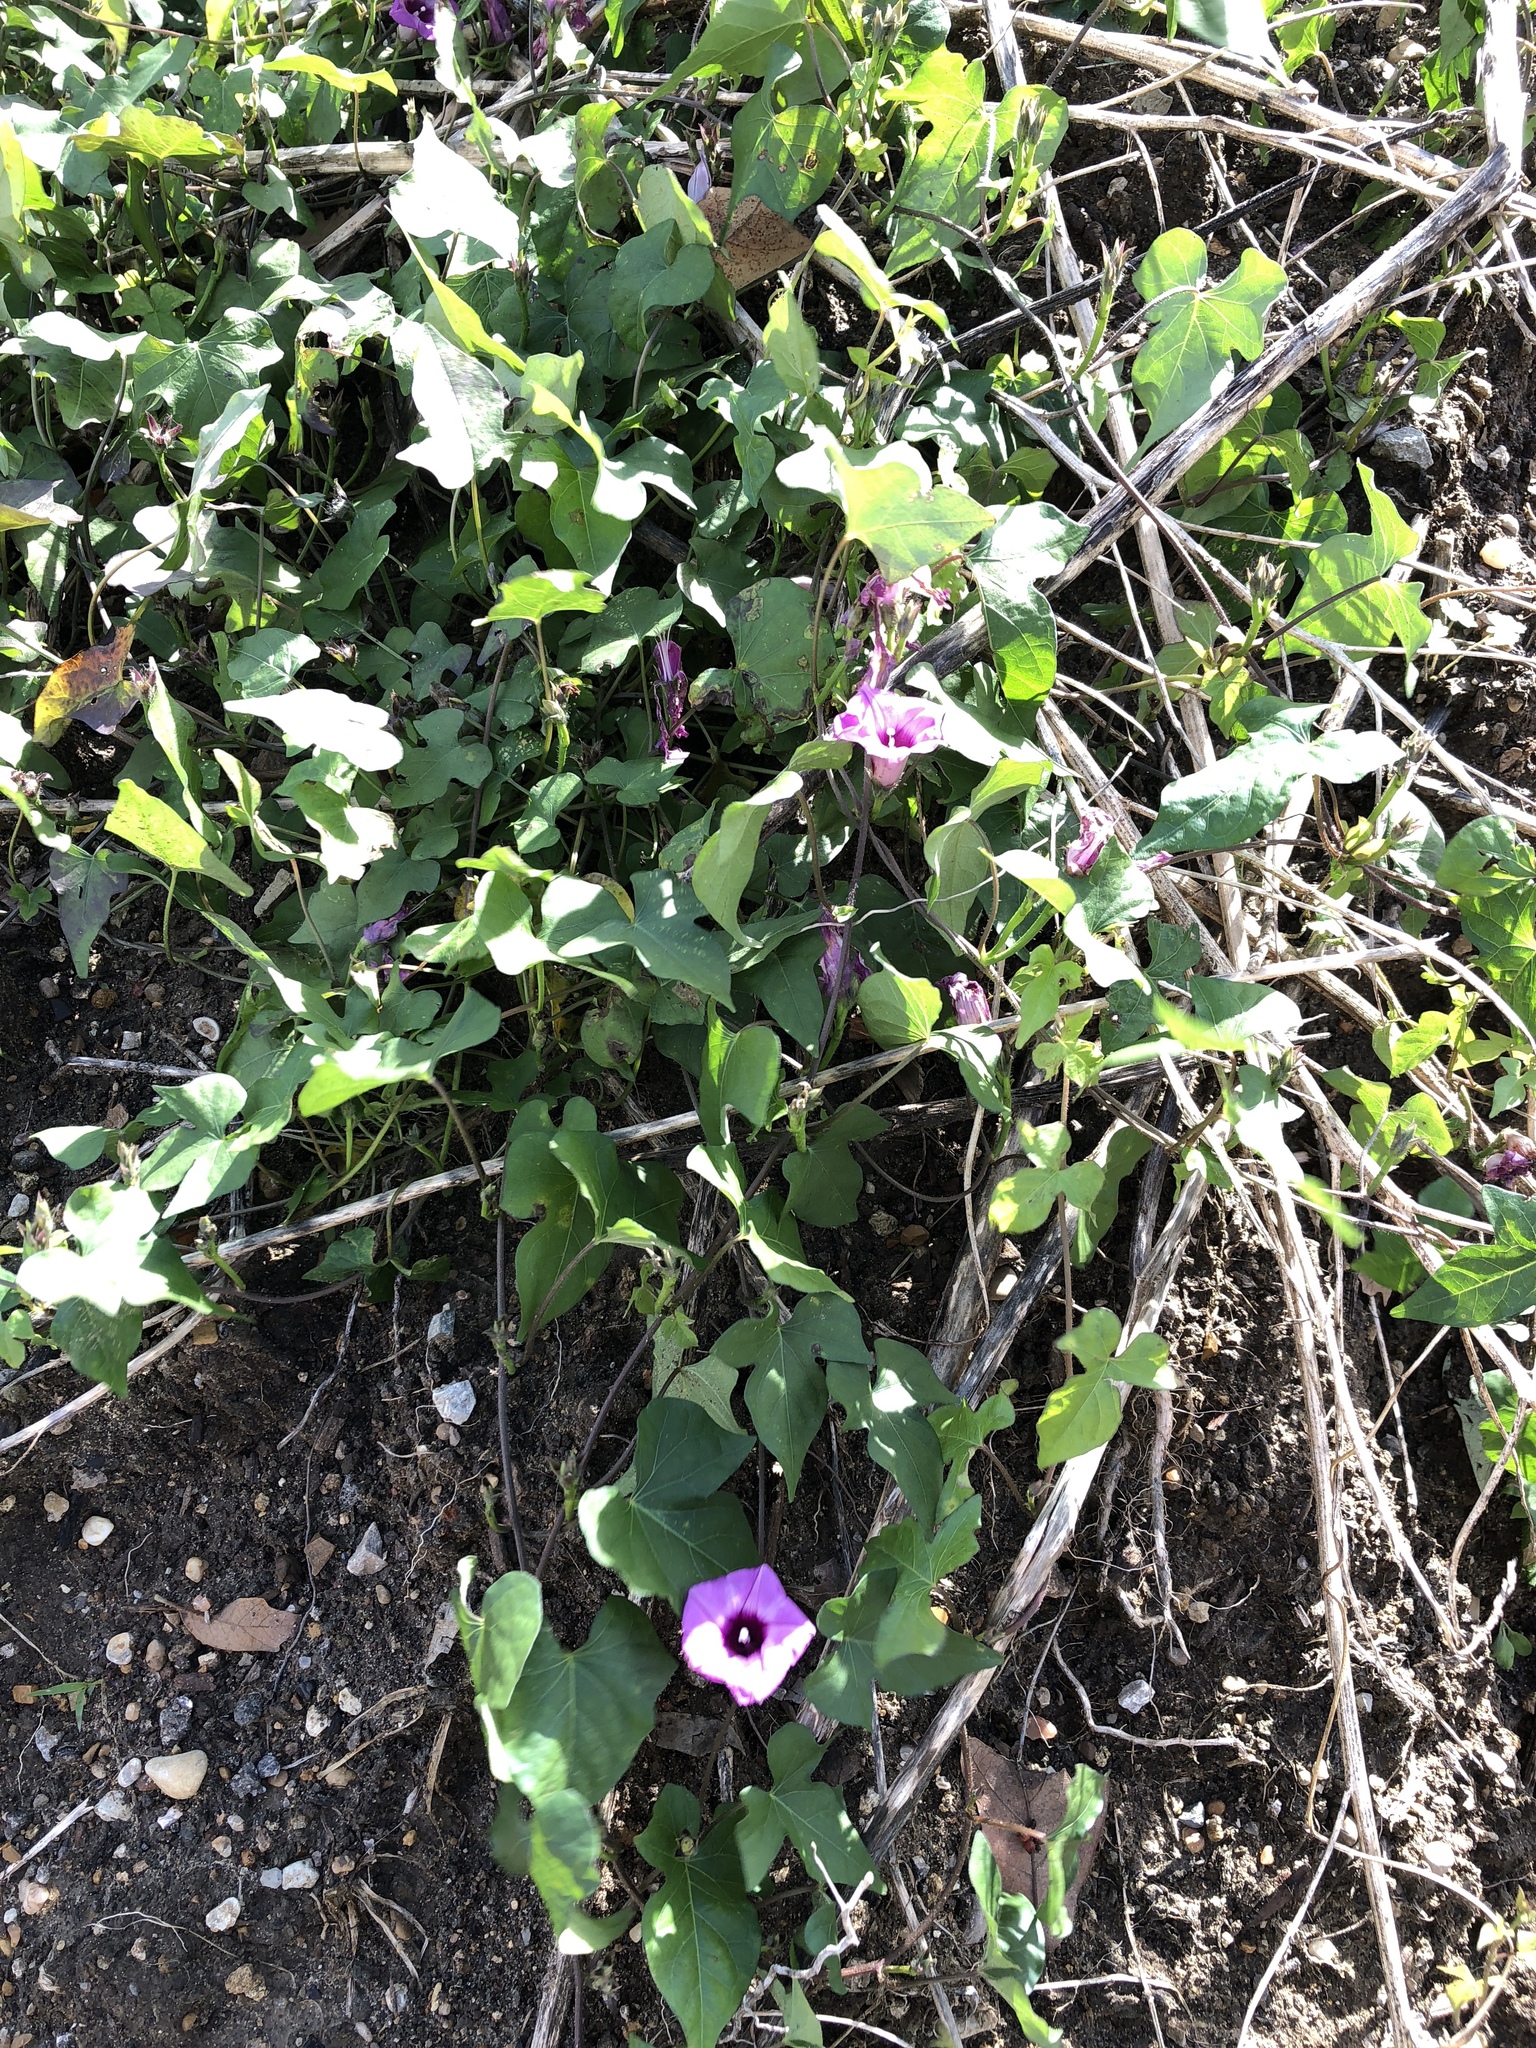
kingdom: Plantae
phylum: Tracheophyta
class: Magnoliopsida
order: Solanales
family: Convolvulaceae
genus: Ipomoea
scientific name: Ipomoea cordatotriloba
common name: Cotton morning glory
